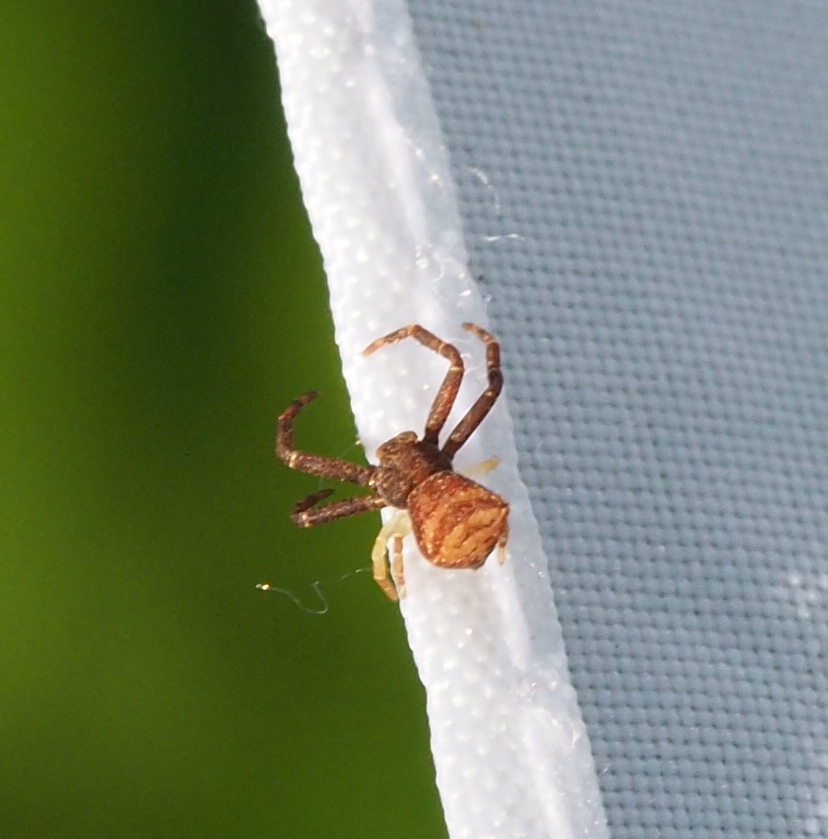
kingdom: Animalia
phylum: Arthropoda
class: Arachnida
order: Araneae
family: Thomisidae
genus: Pistius
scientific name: Pistius truncatus
